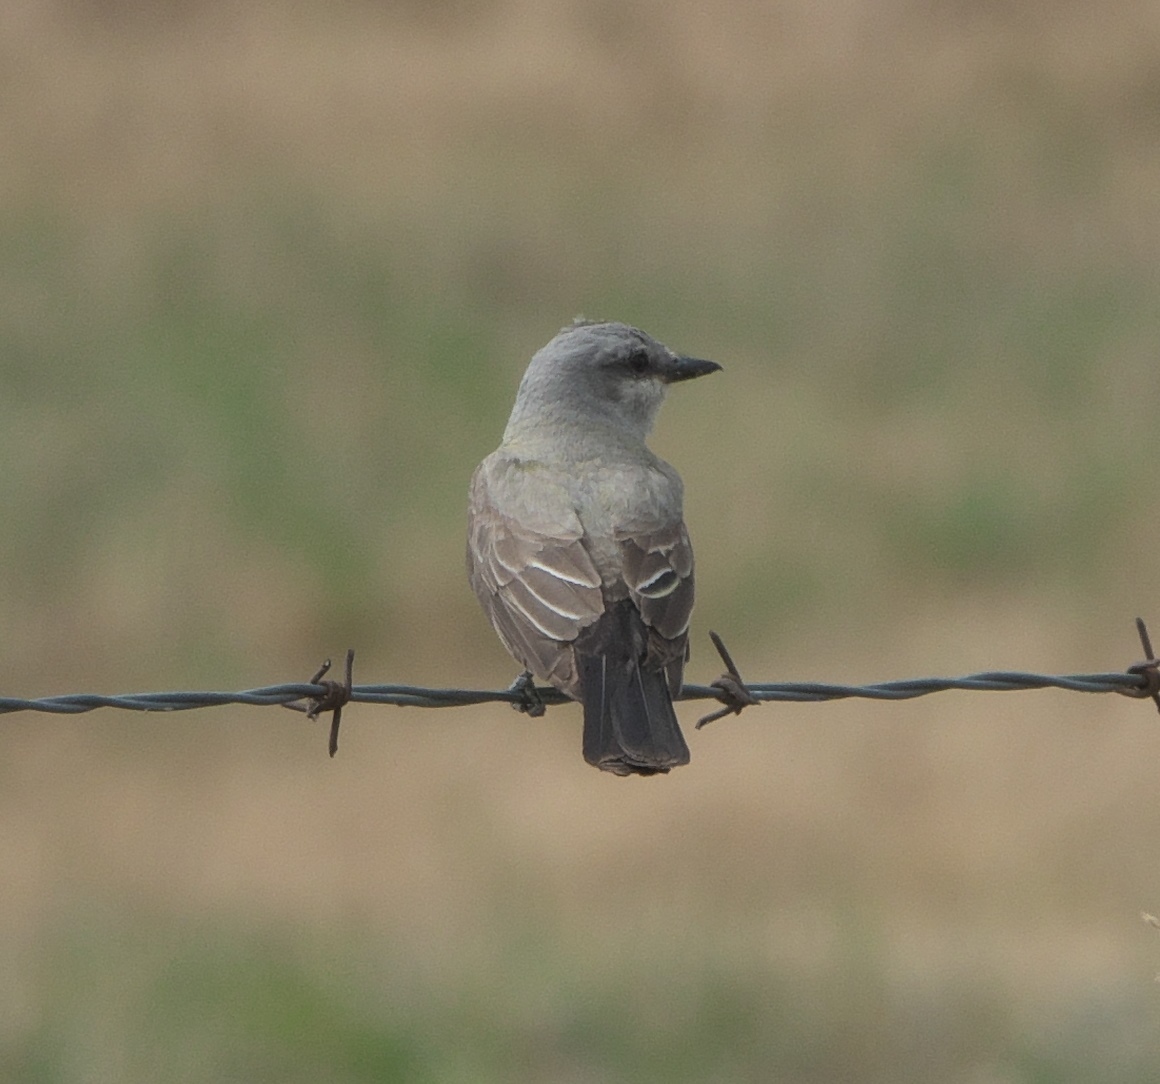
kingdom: Animalia
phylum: Chordata
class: Aves
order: Passeriformes
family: Tyrannidae
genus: Tyrannus
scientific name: Tyrannus verticalis
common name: Western kingbird
